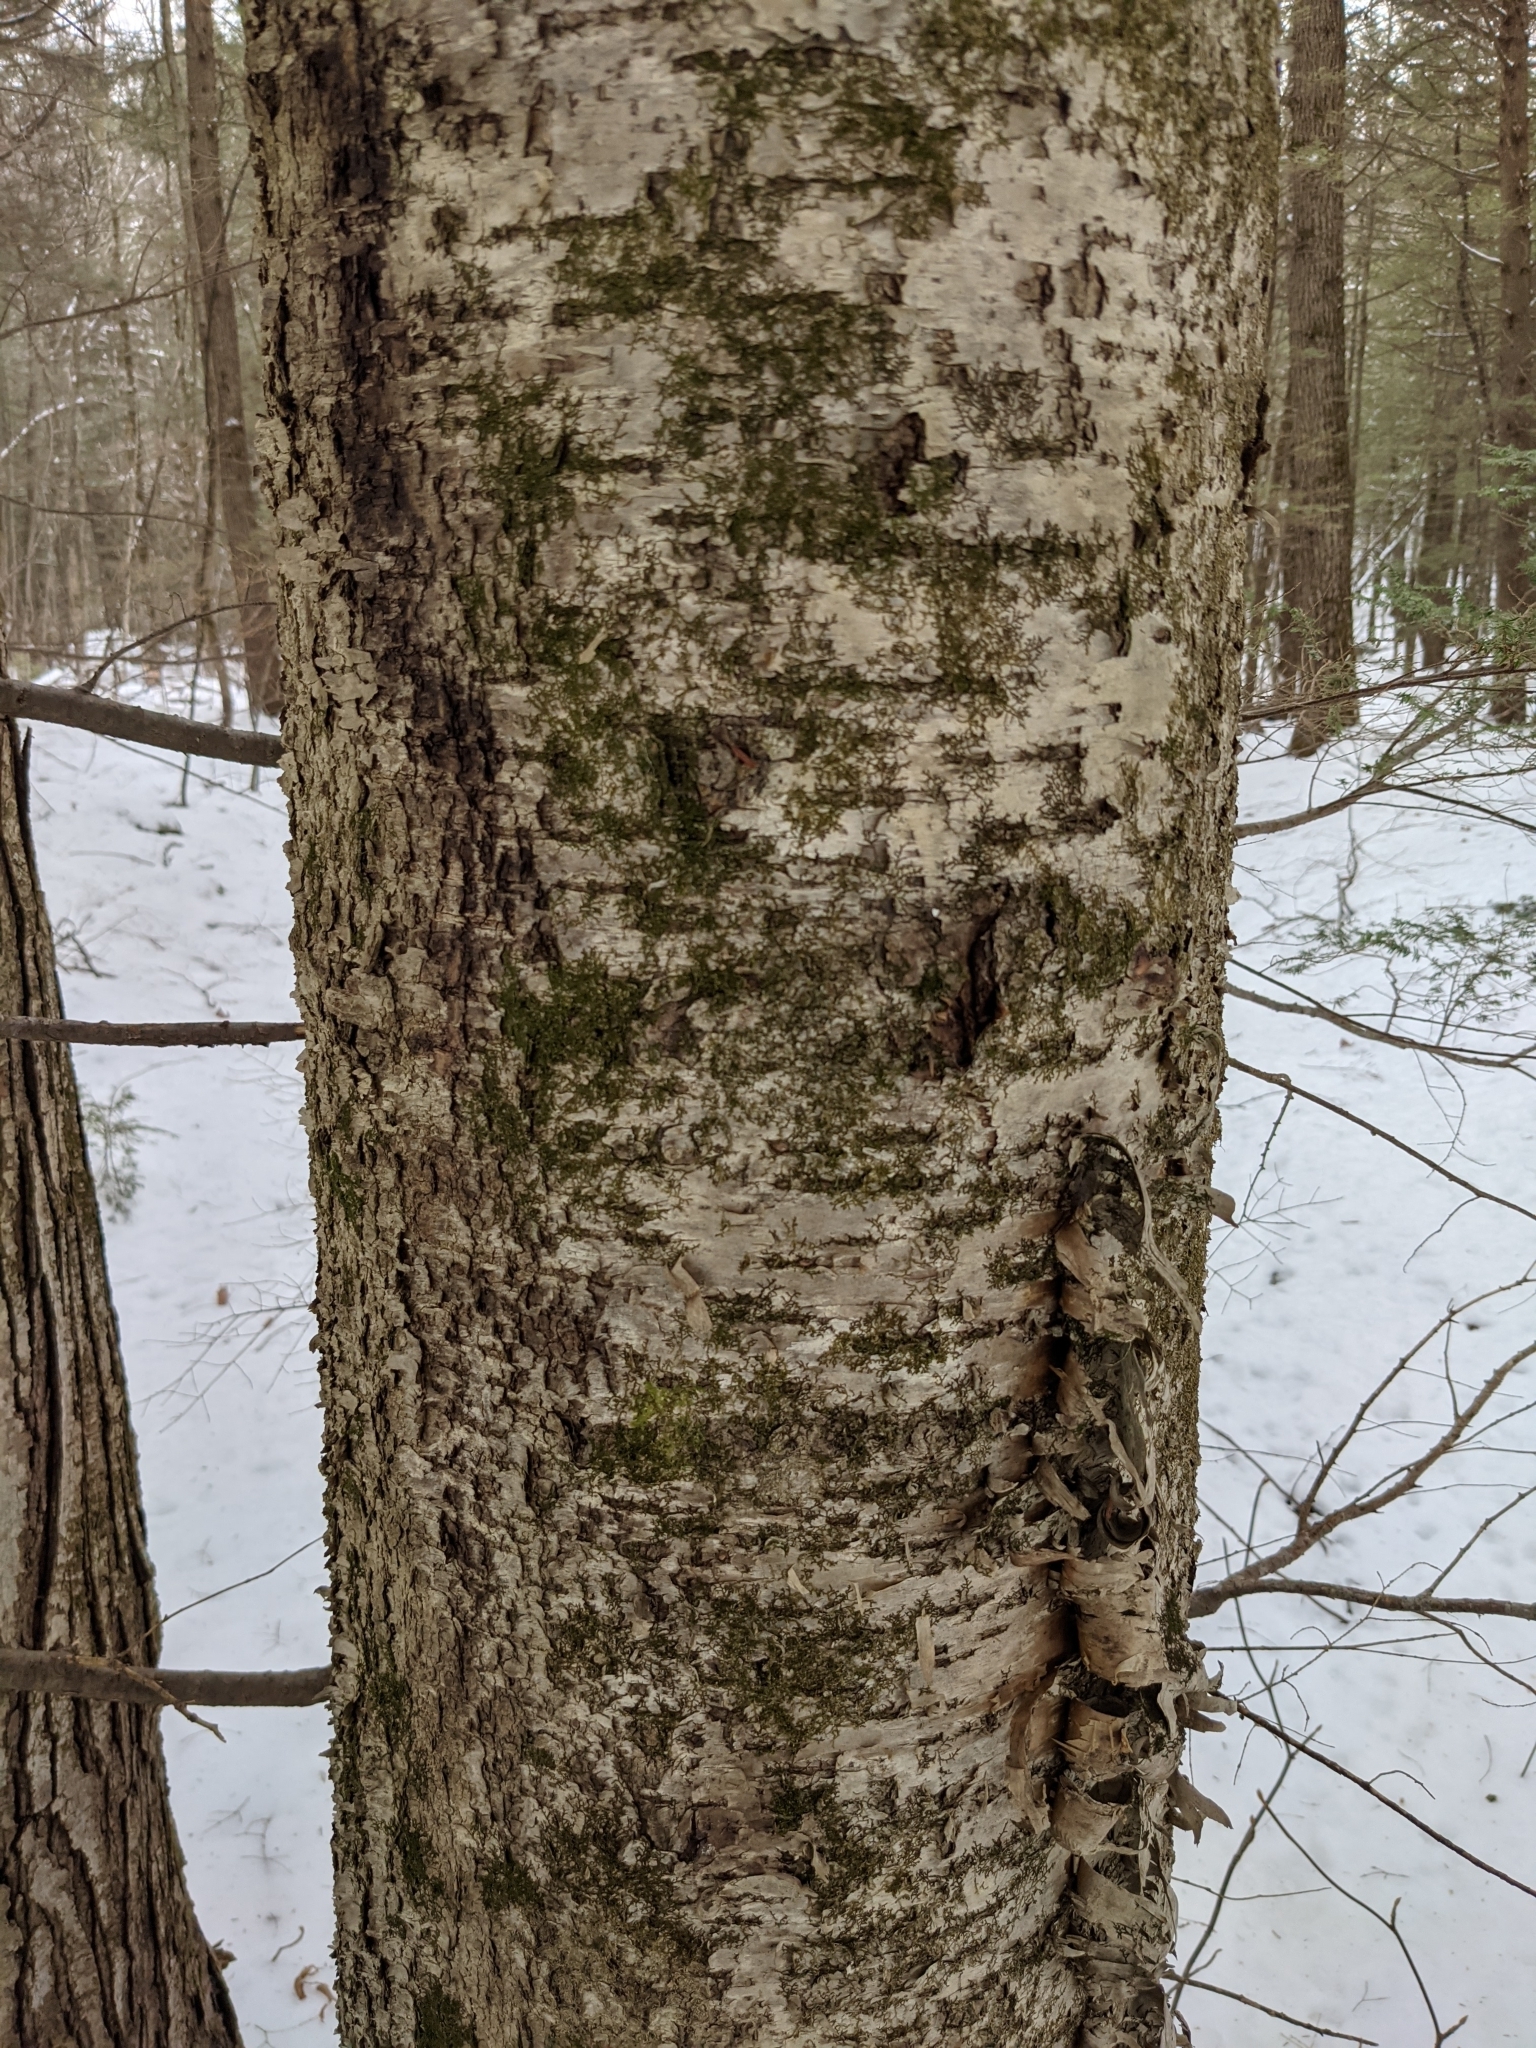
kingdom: Plantae
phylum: Tracheophyta
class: Magnoliopsida
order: Fagales
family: Betulaceae
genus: Betula
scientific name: Betula alleghaniensis
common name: Yellow birch
